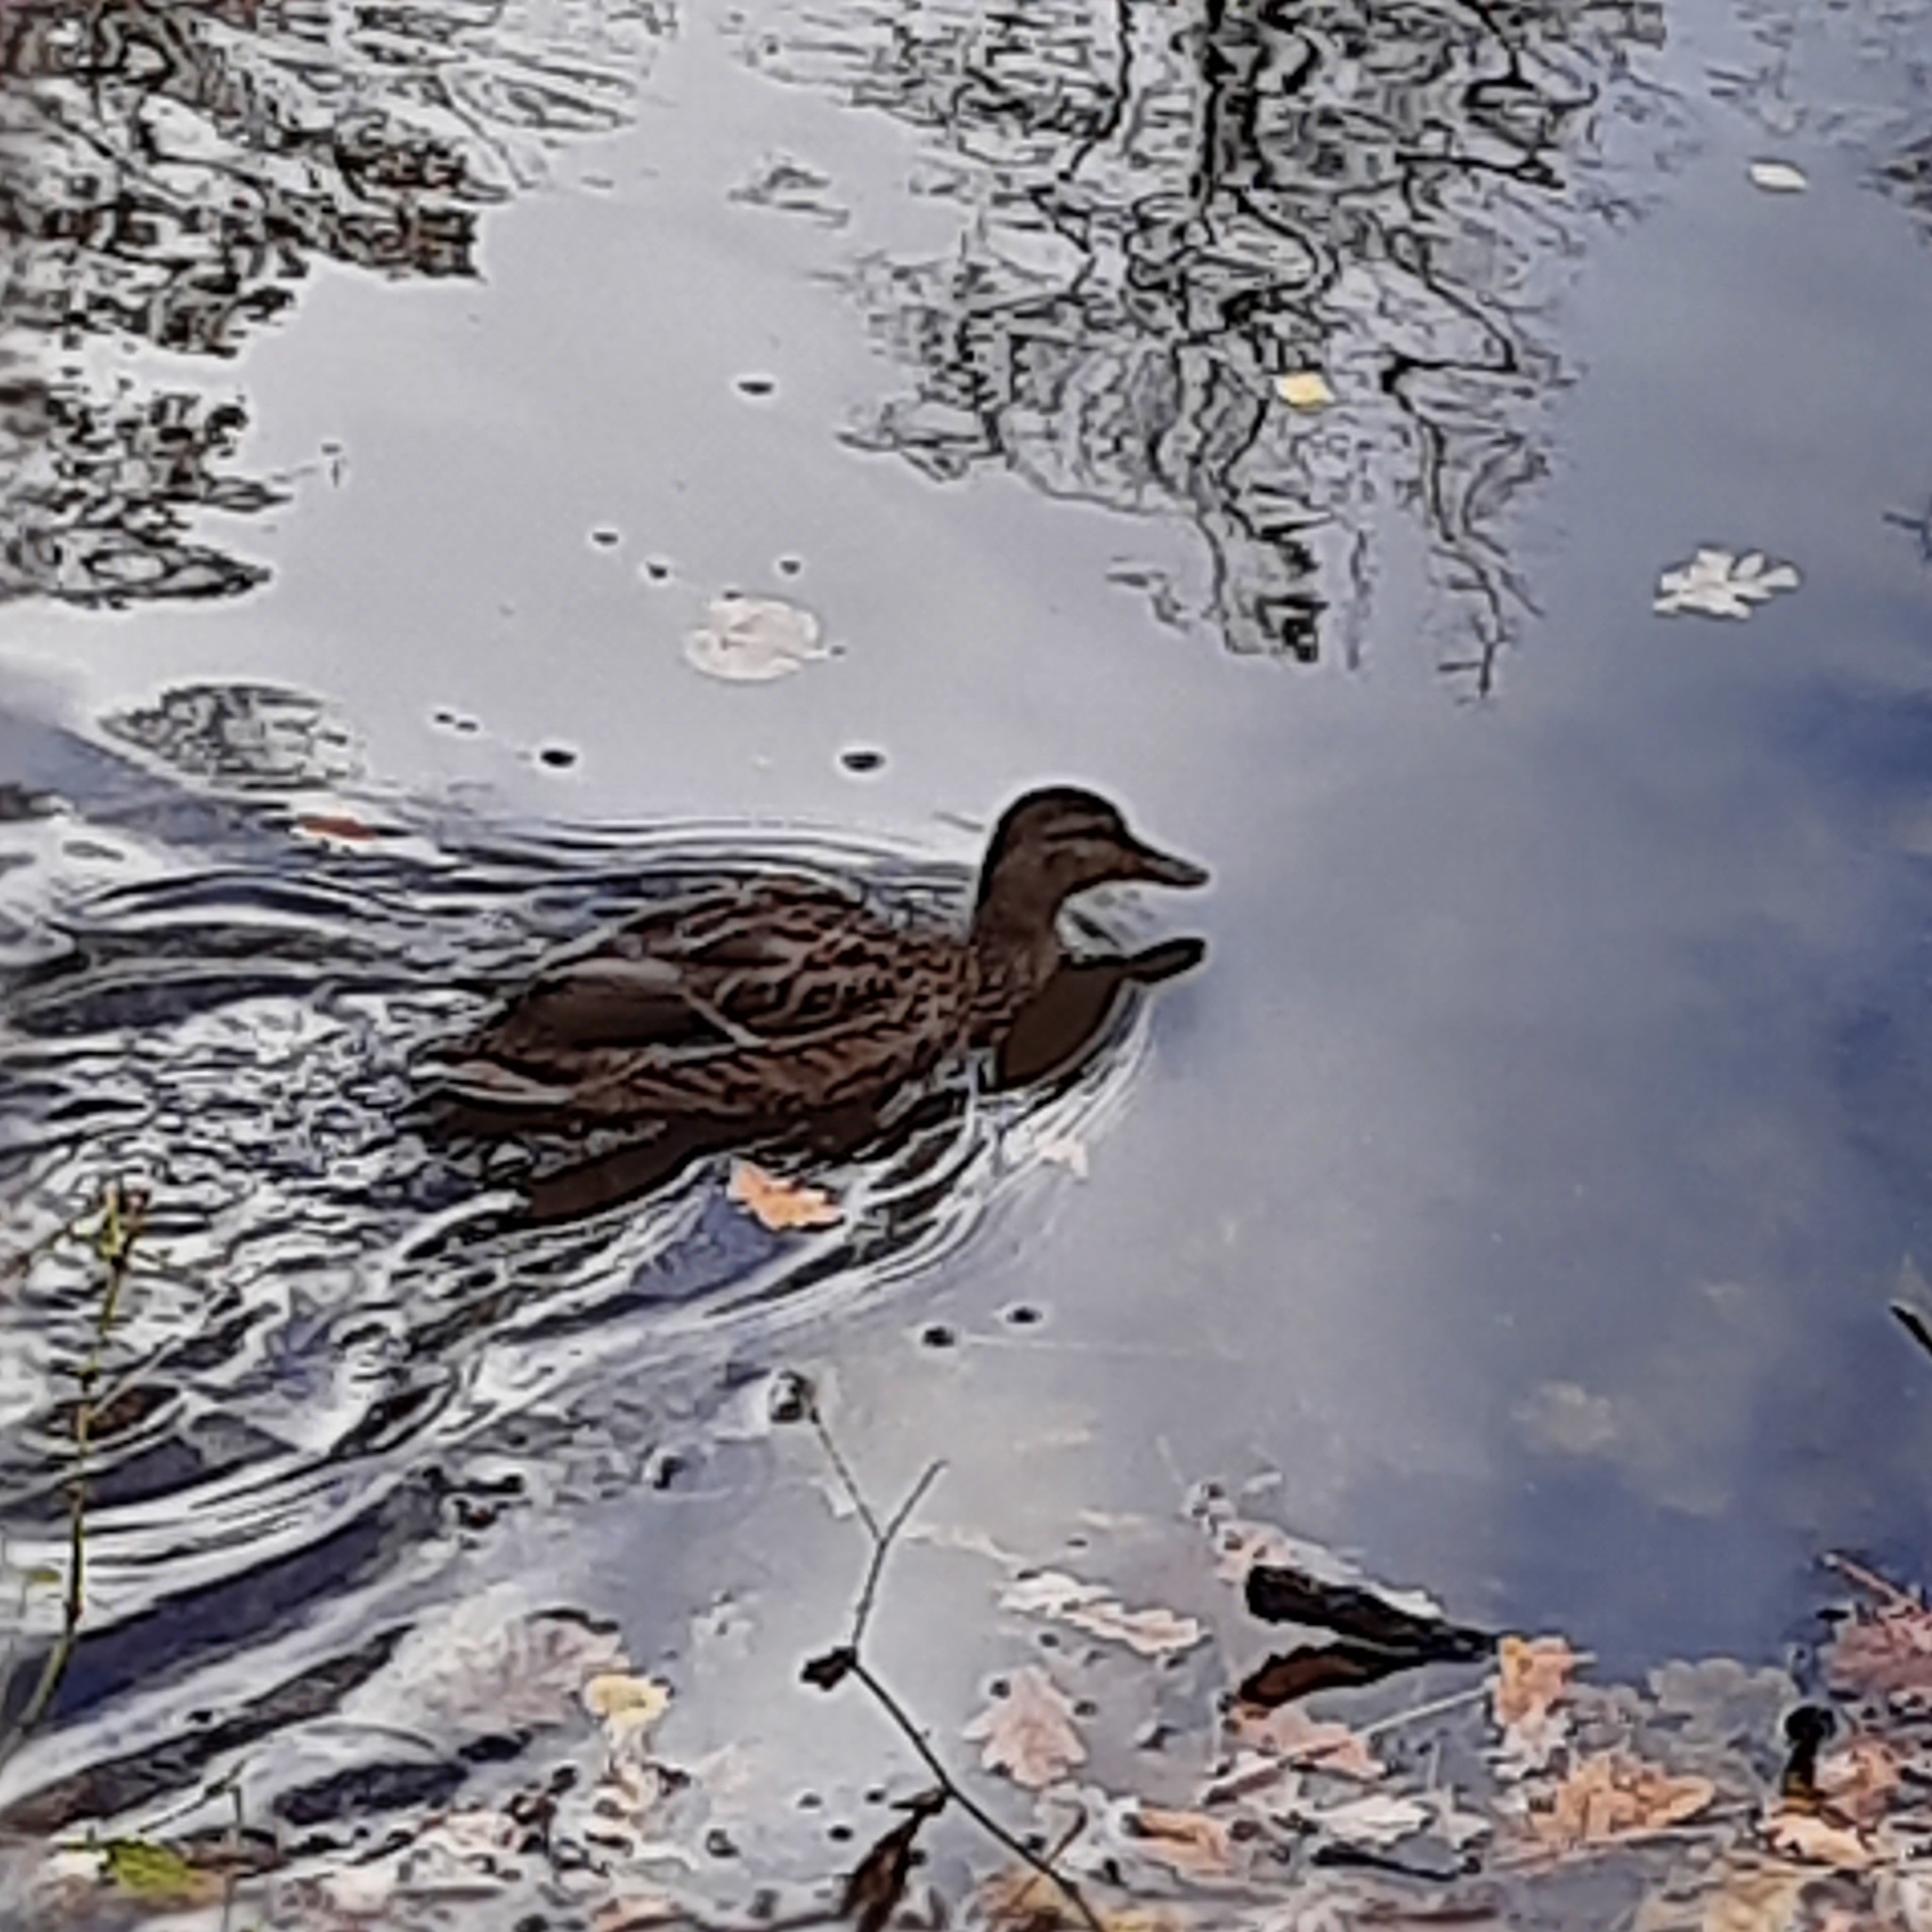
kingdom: Animalia
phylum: Chordata
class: Aves
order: Anseriformes
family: Anatidae
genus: Anas
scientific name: Anas platyrhynchos
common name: Mallard
